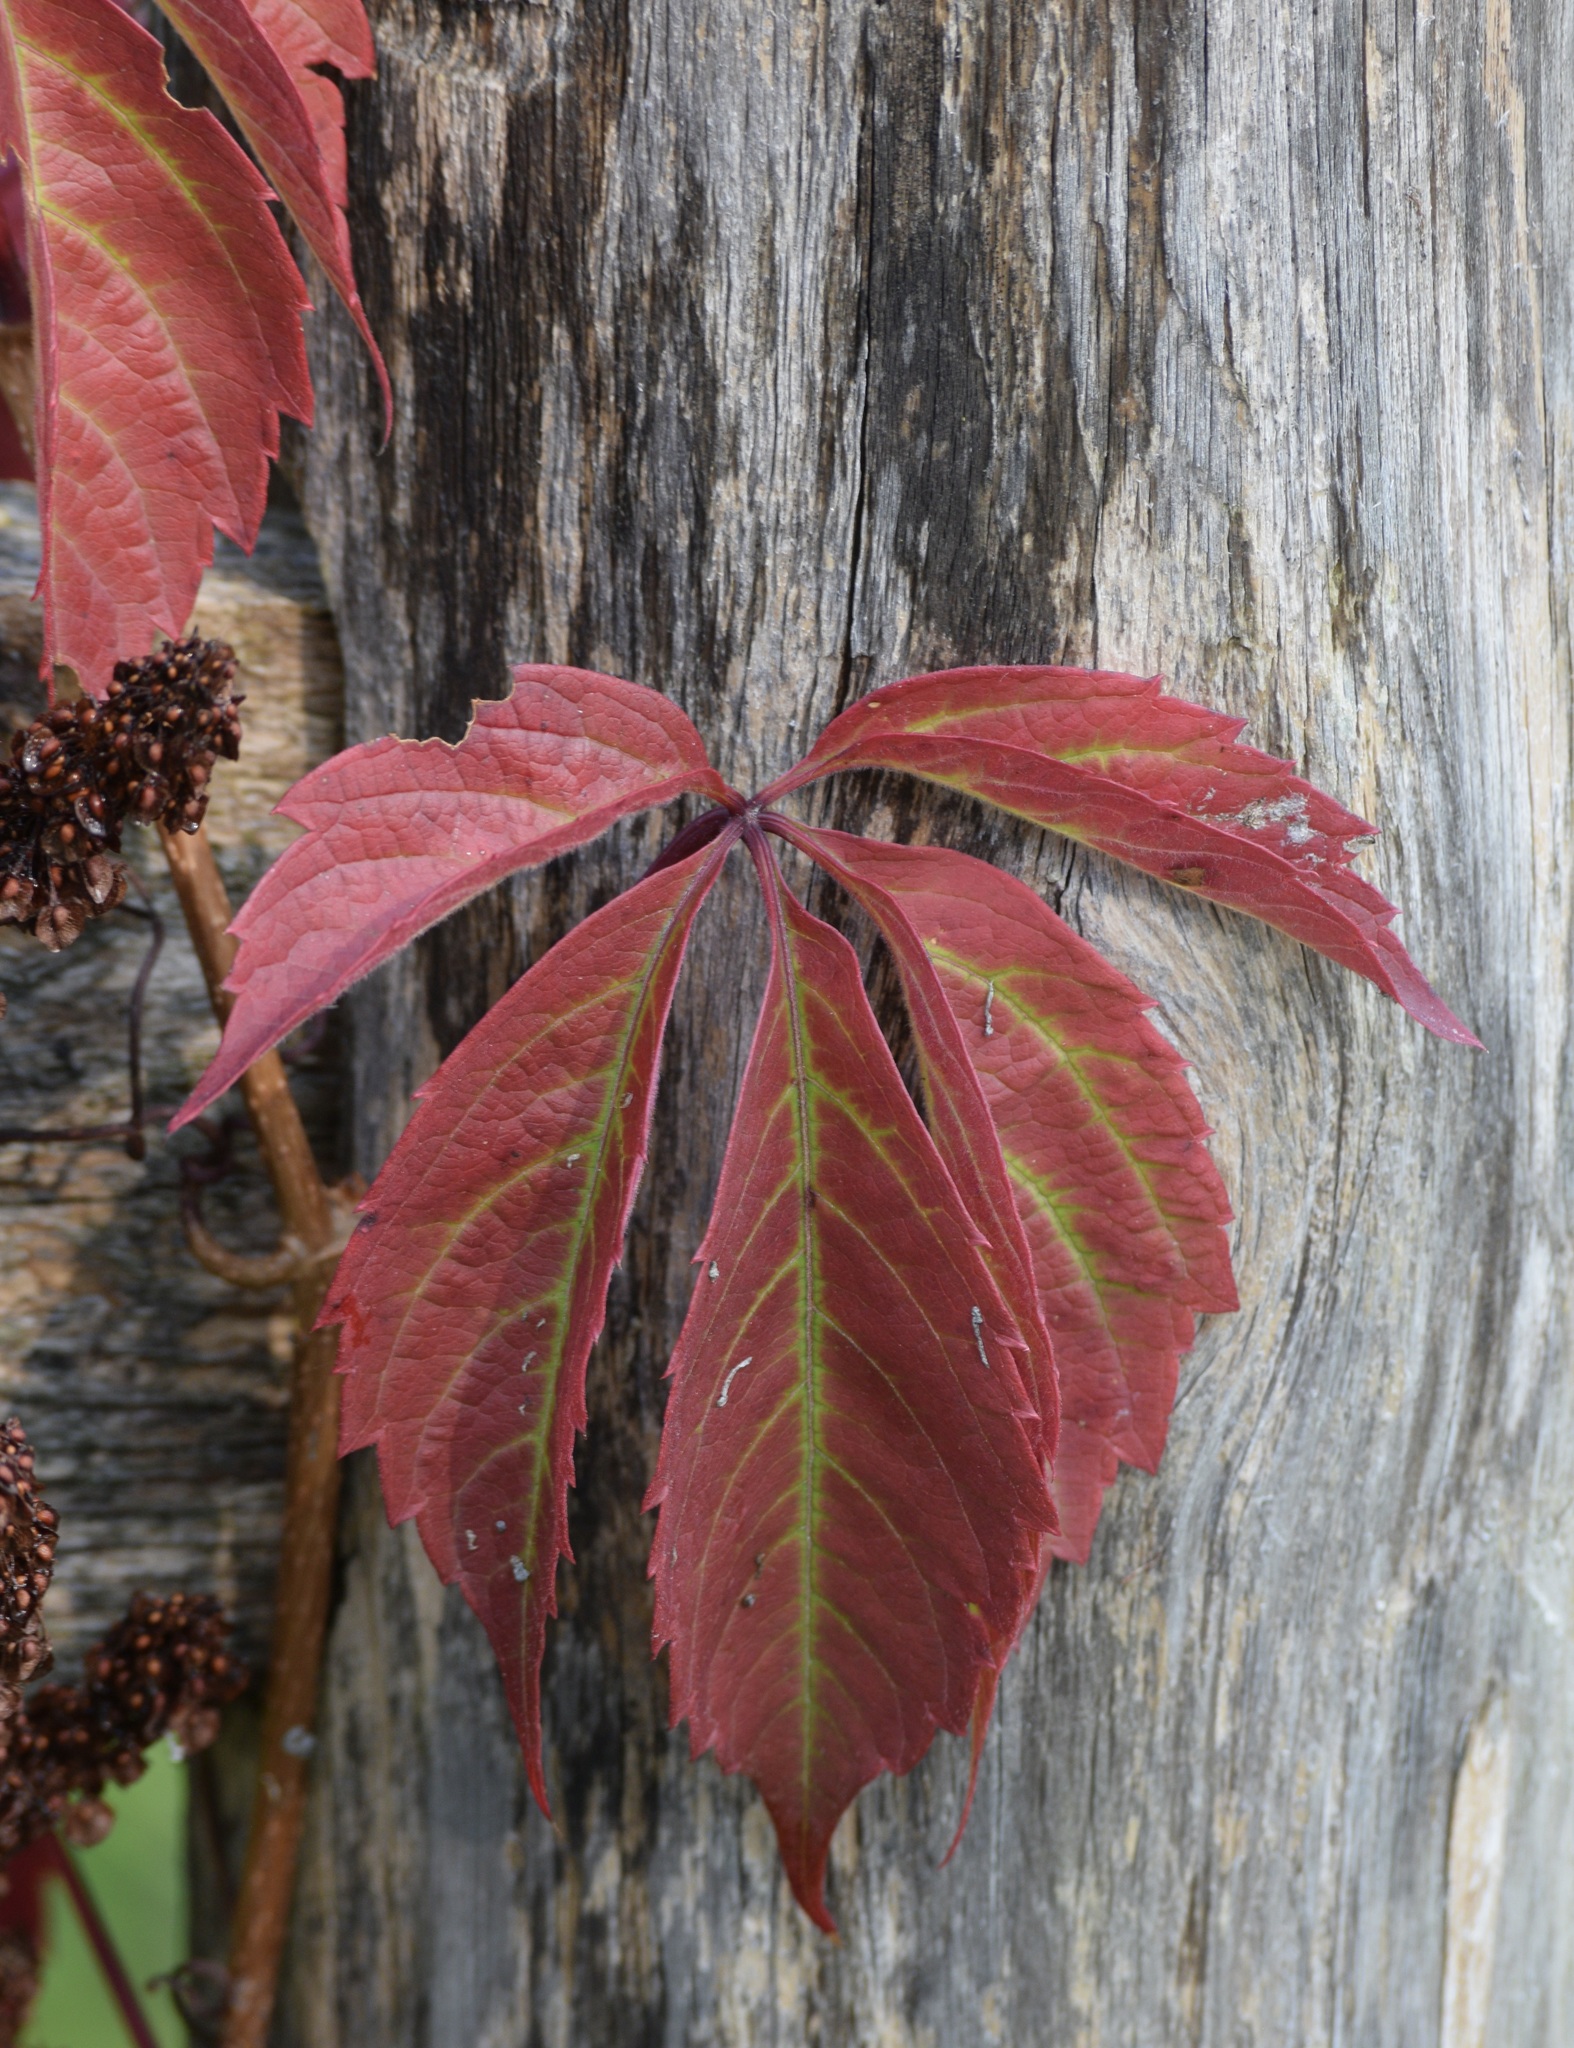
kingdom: Plantae
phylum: Tracheophyta
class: Magnoliopsida
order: Vitales
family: Vitaceae
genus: Parthenocissus
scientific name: Parthenocissus quinquefolia
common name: Virginia-creeper
